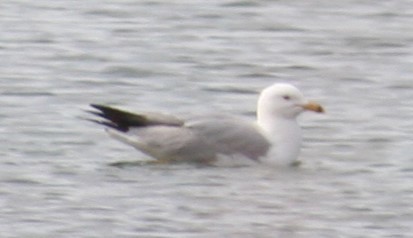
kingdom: Animalia
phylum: Chordata
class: Aves
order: Charadriiformes
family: Laridae
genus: Larus
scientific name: Larus delawarensis
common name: Ring-billed gull
